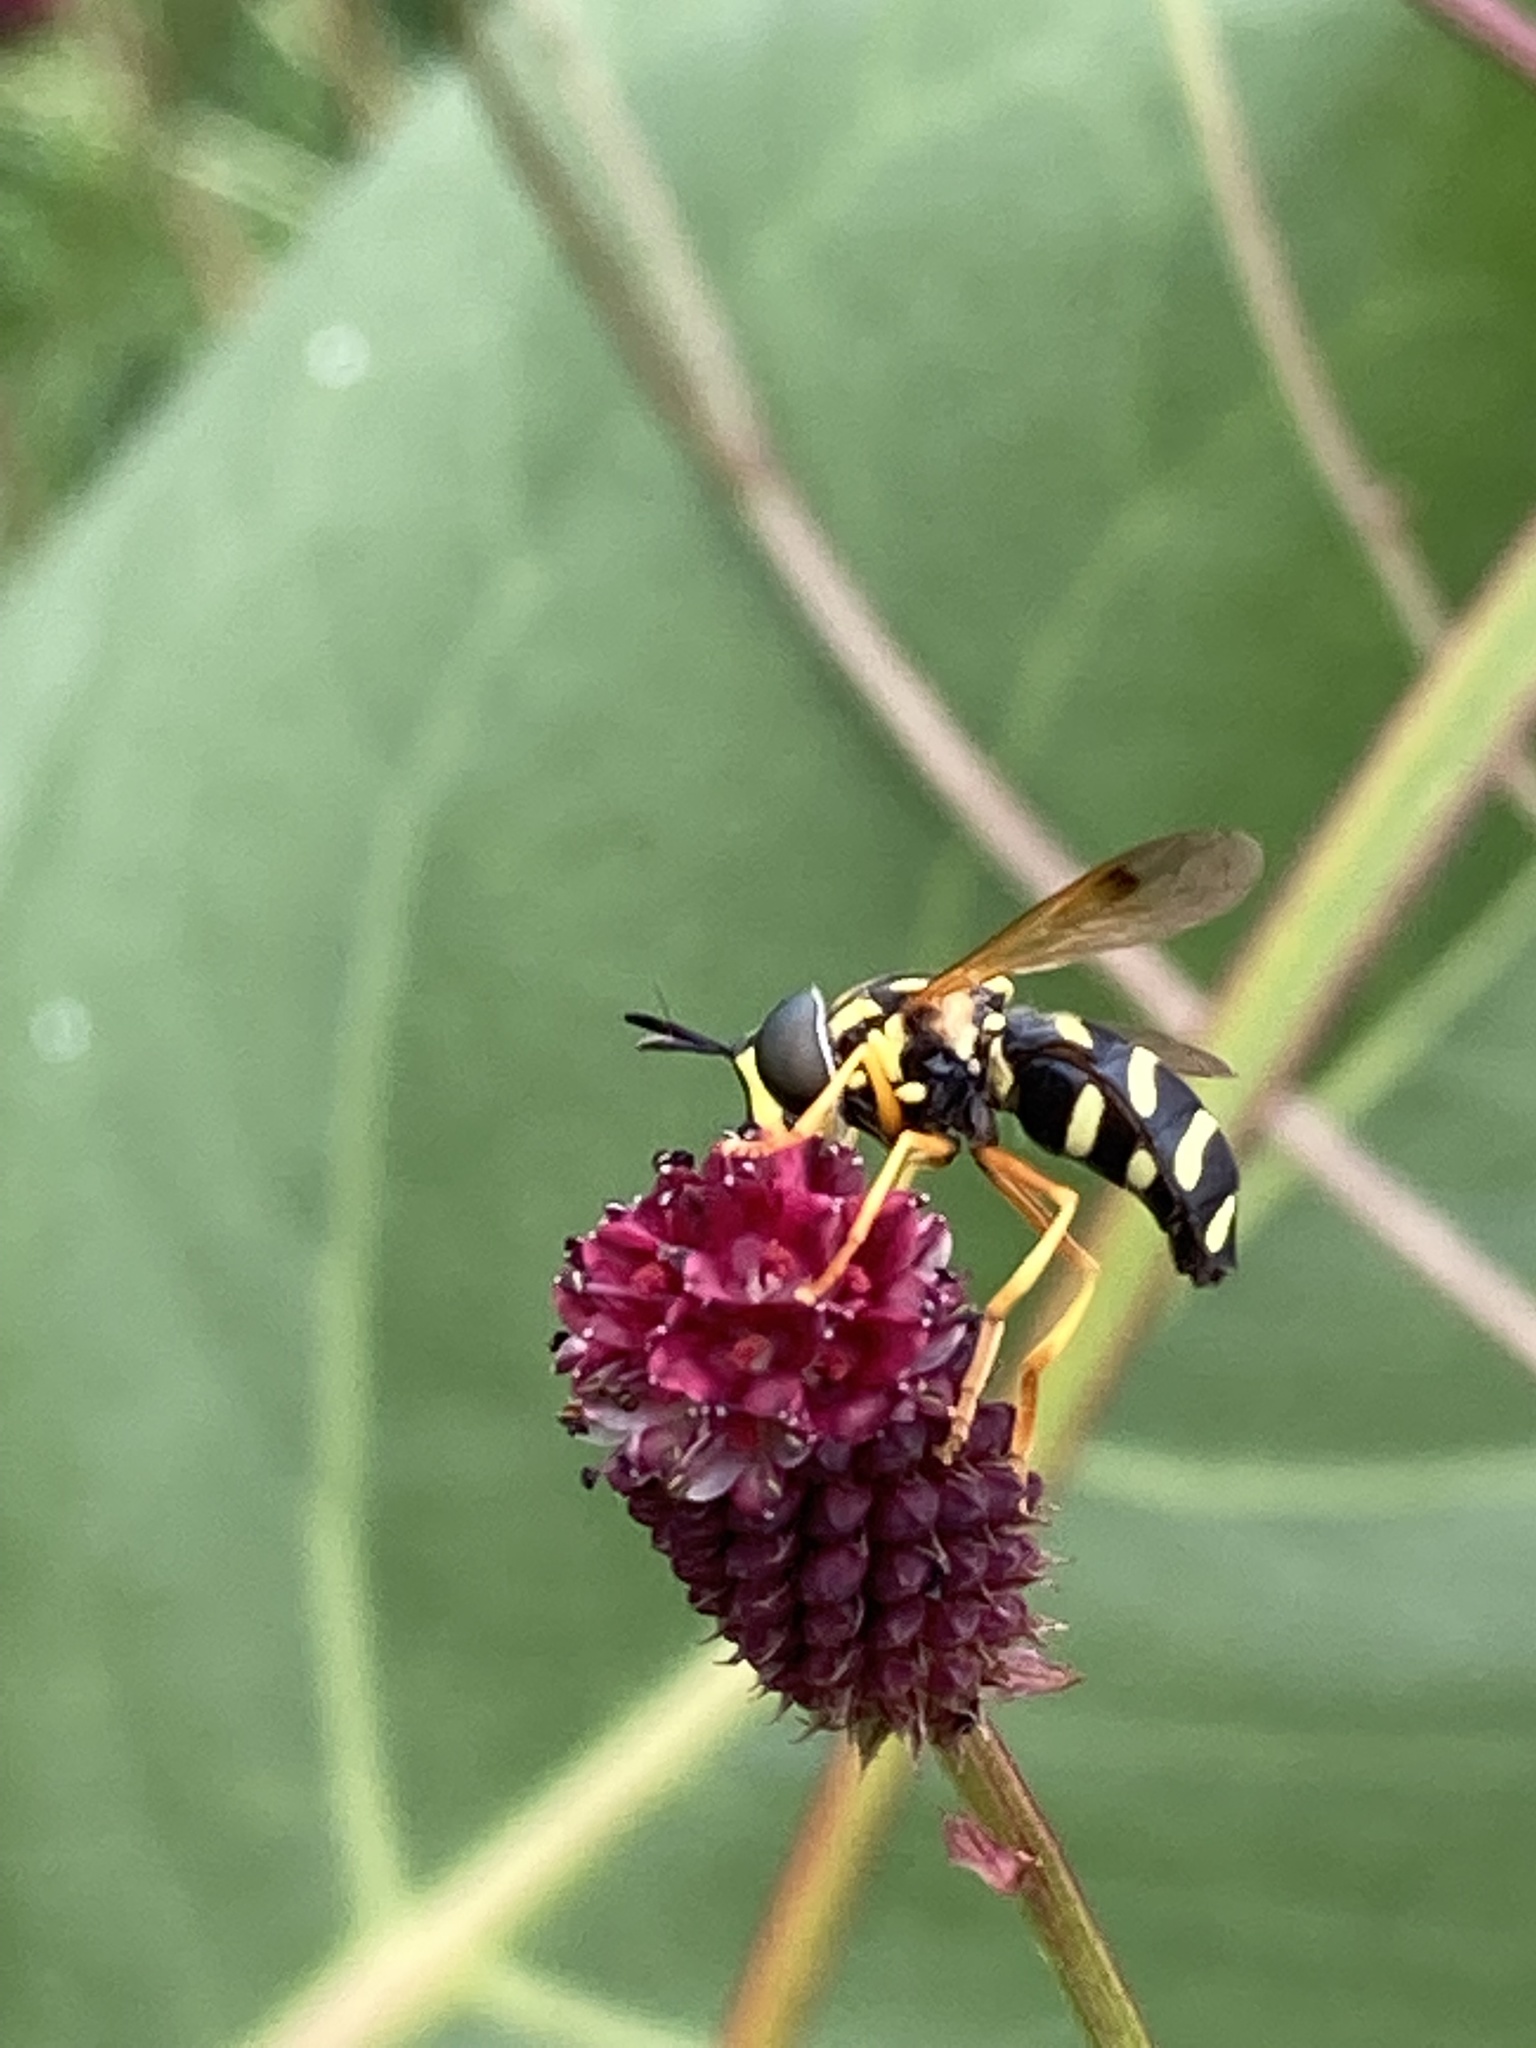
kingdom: Animalia
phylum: Arthropoda
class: Insecta
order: Diptera
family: Syrphidae
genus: Chrysotoxum
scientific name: Chrysotoxum festivum
